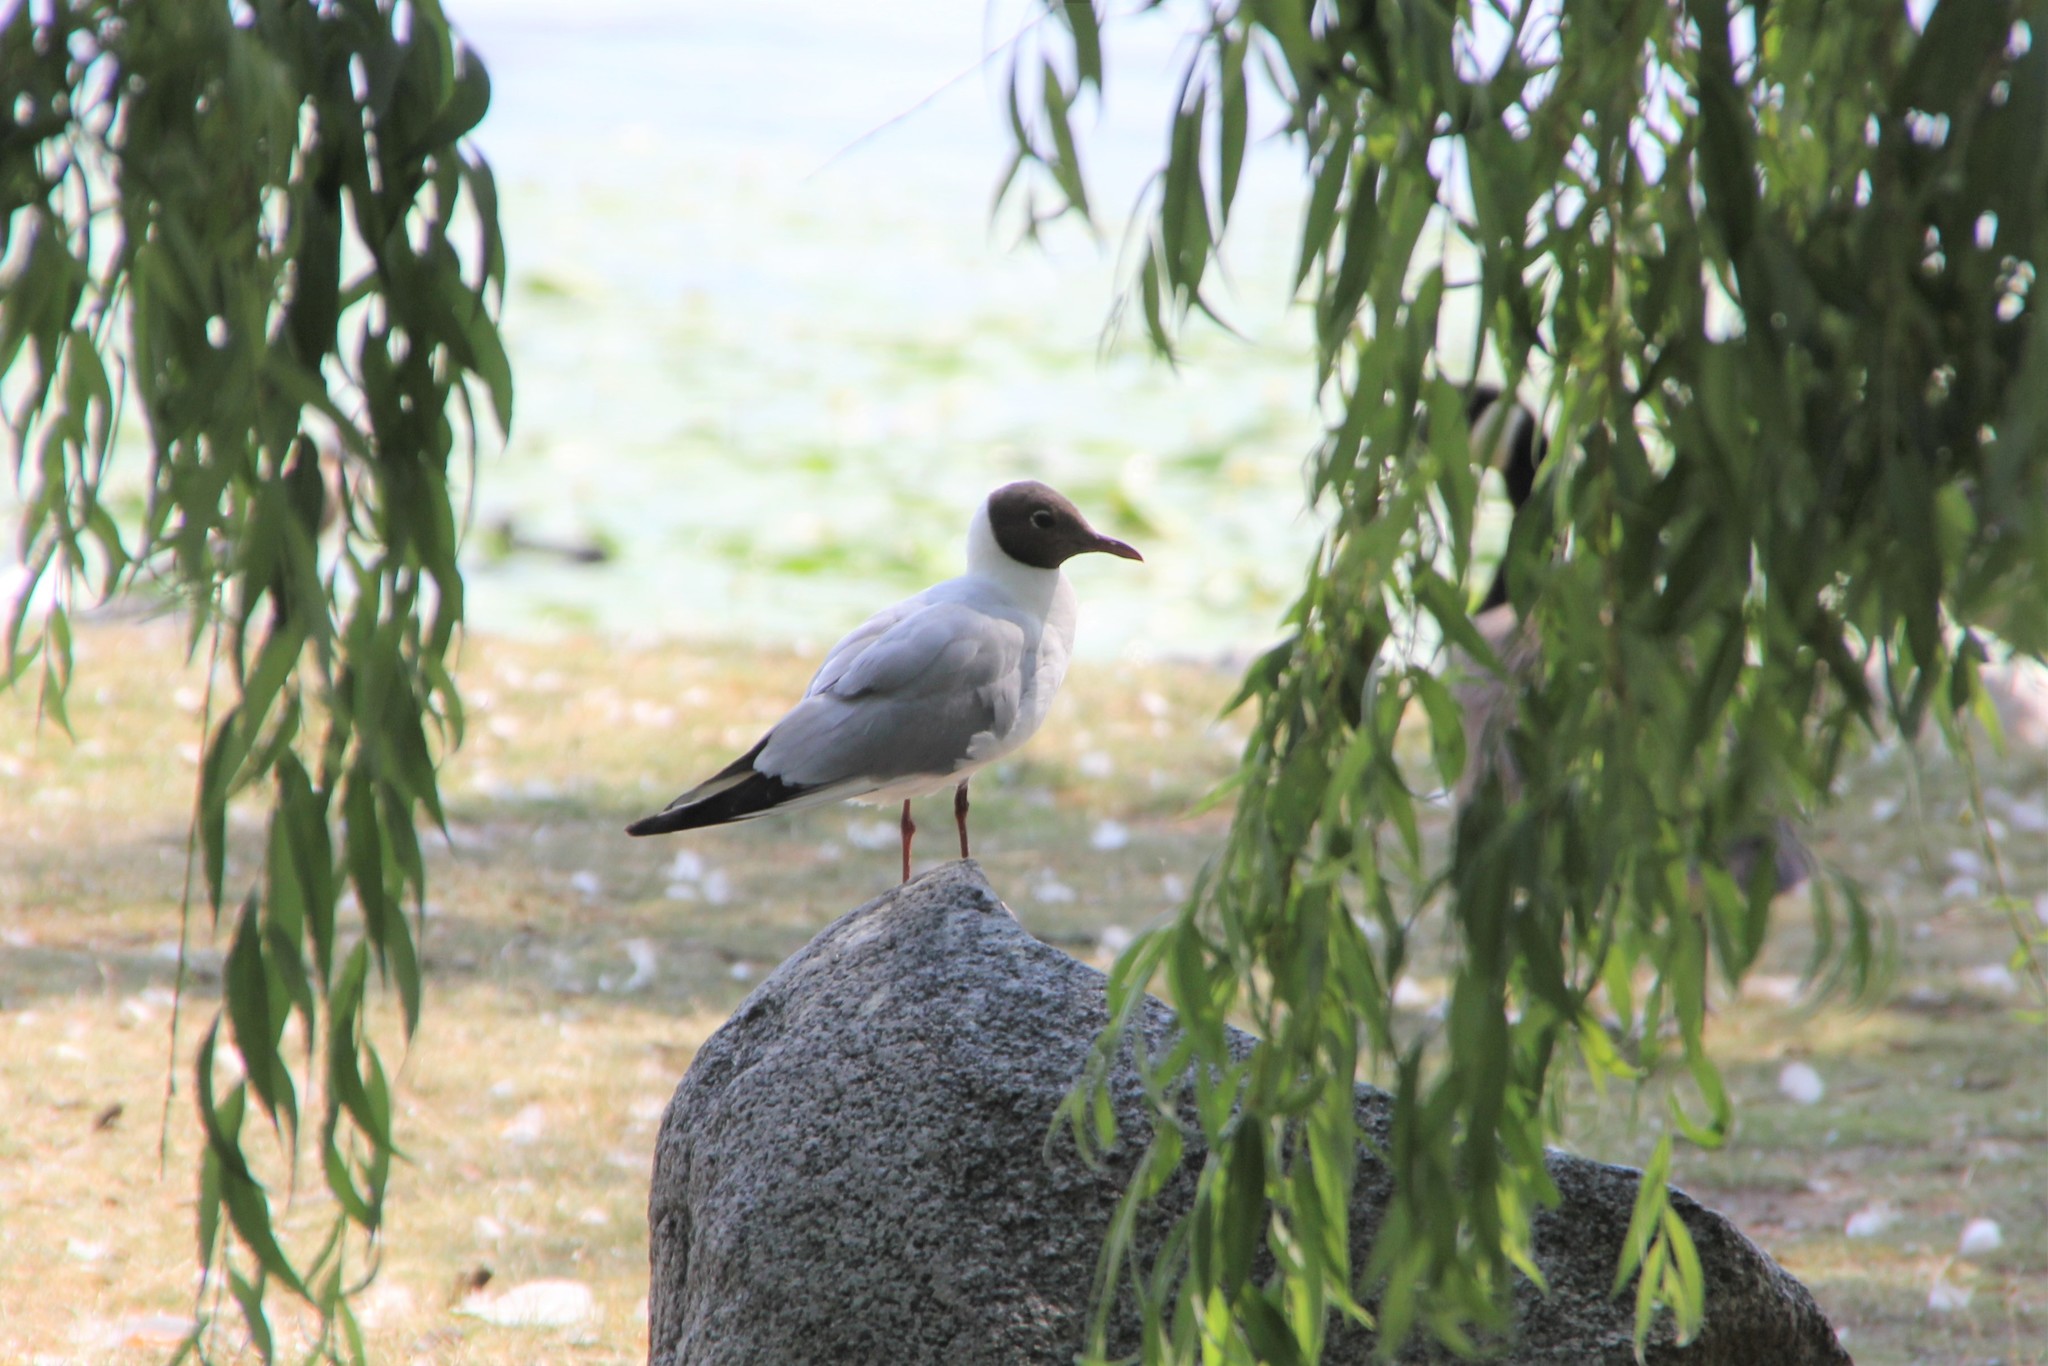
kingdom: Animalia
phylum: Chordata
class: Aves
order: Charadriiformes
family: Laridae
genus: Chroicocephalus
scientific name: Chroicocephalus ridibundus
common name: Black-headed gull
